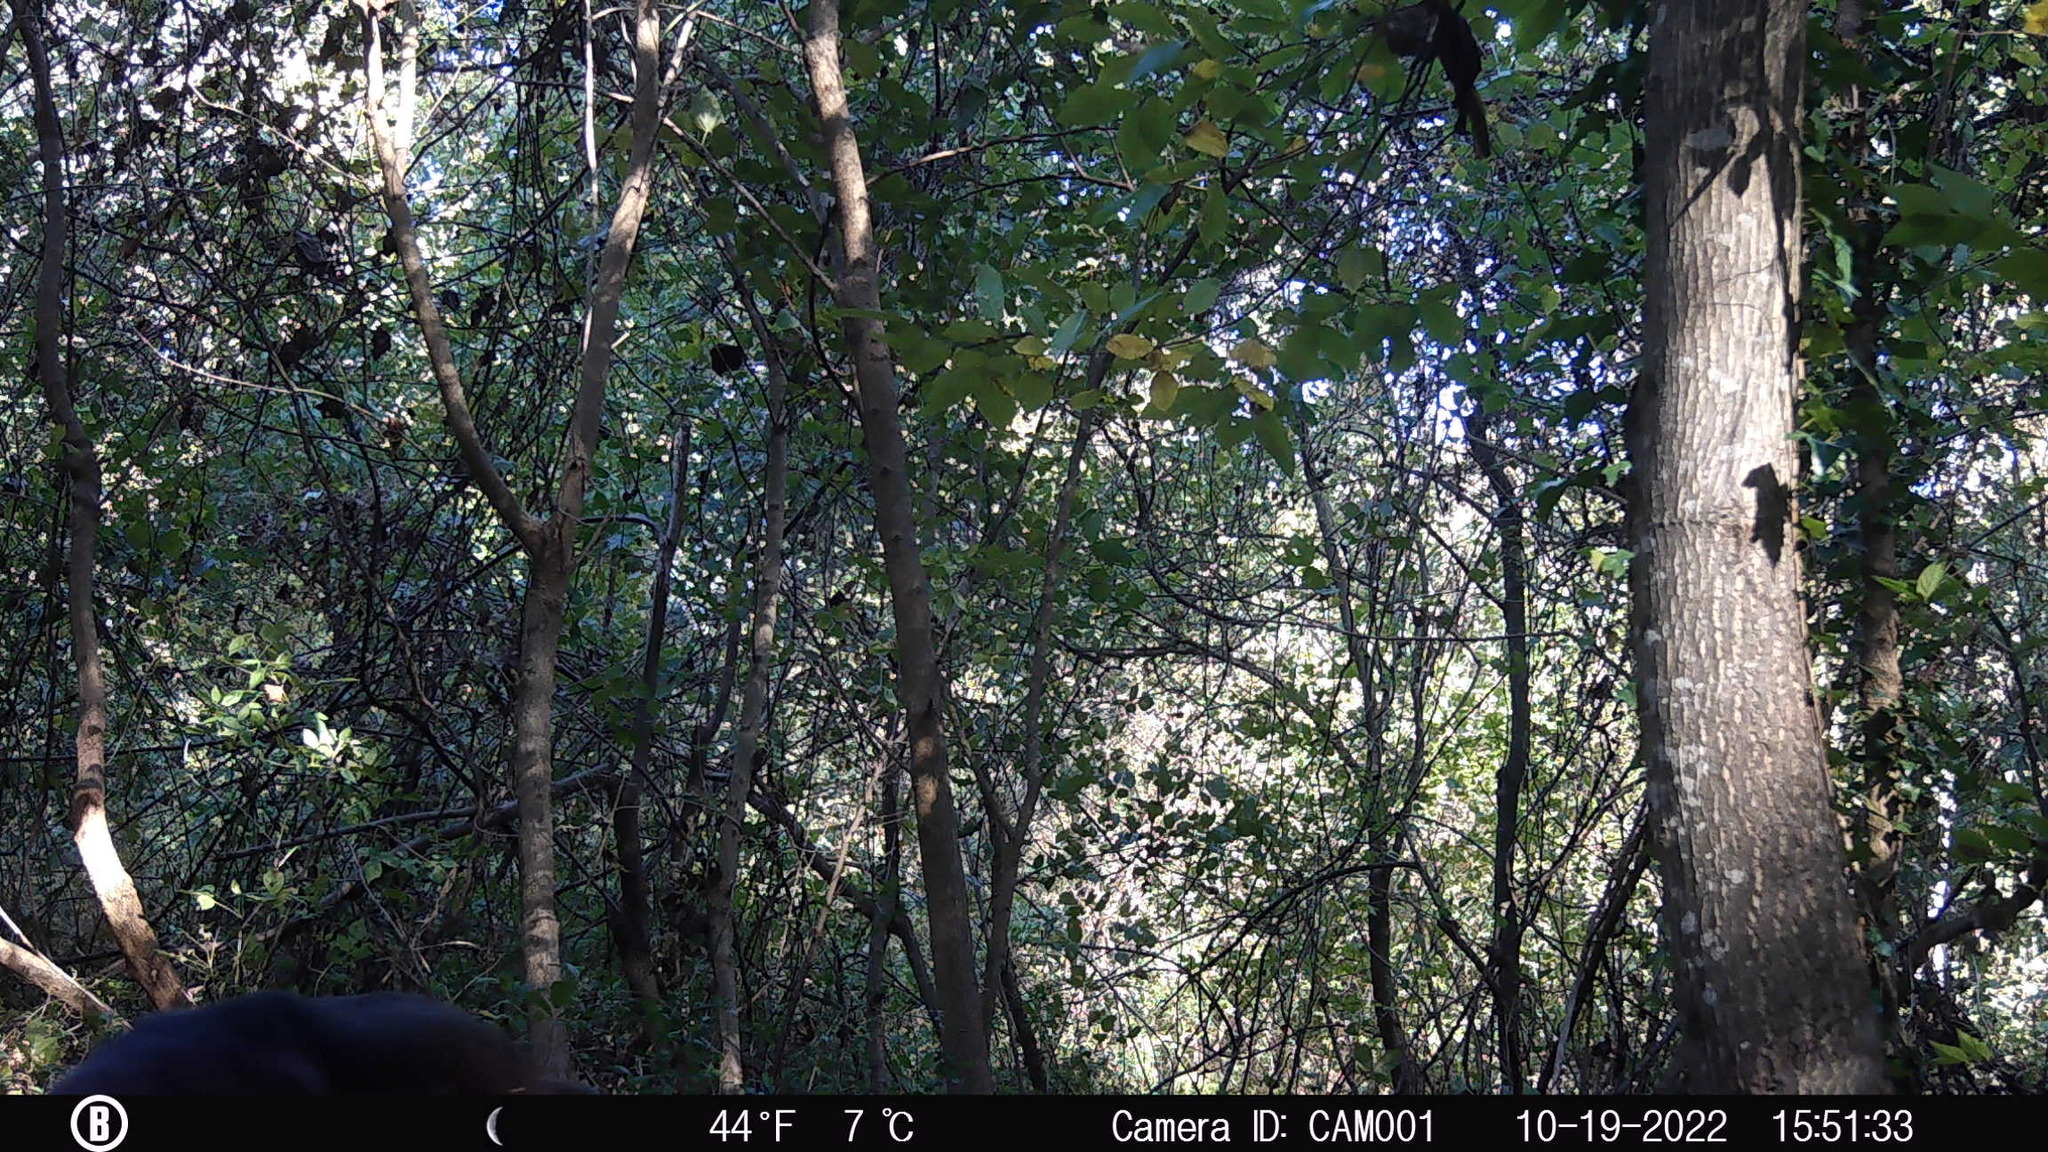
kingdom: Animalia
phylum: Chordata
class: Mammalia
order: Artiodactyla
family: Cervidae
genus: Odocoileus
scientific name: Odocoileus virginianus
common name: White-tailed deer
